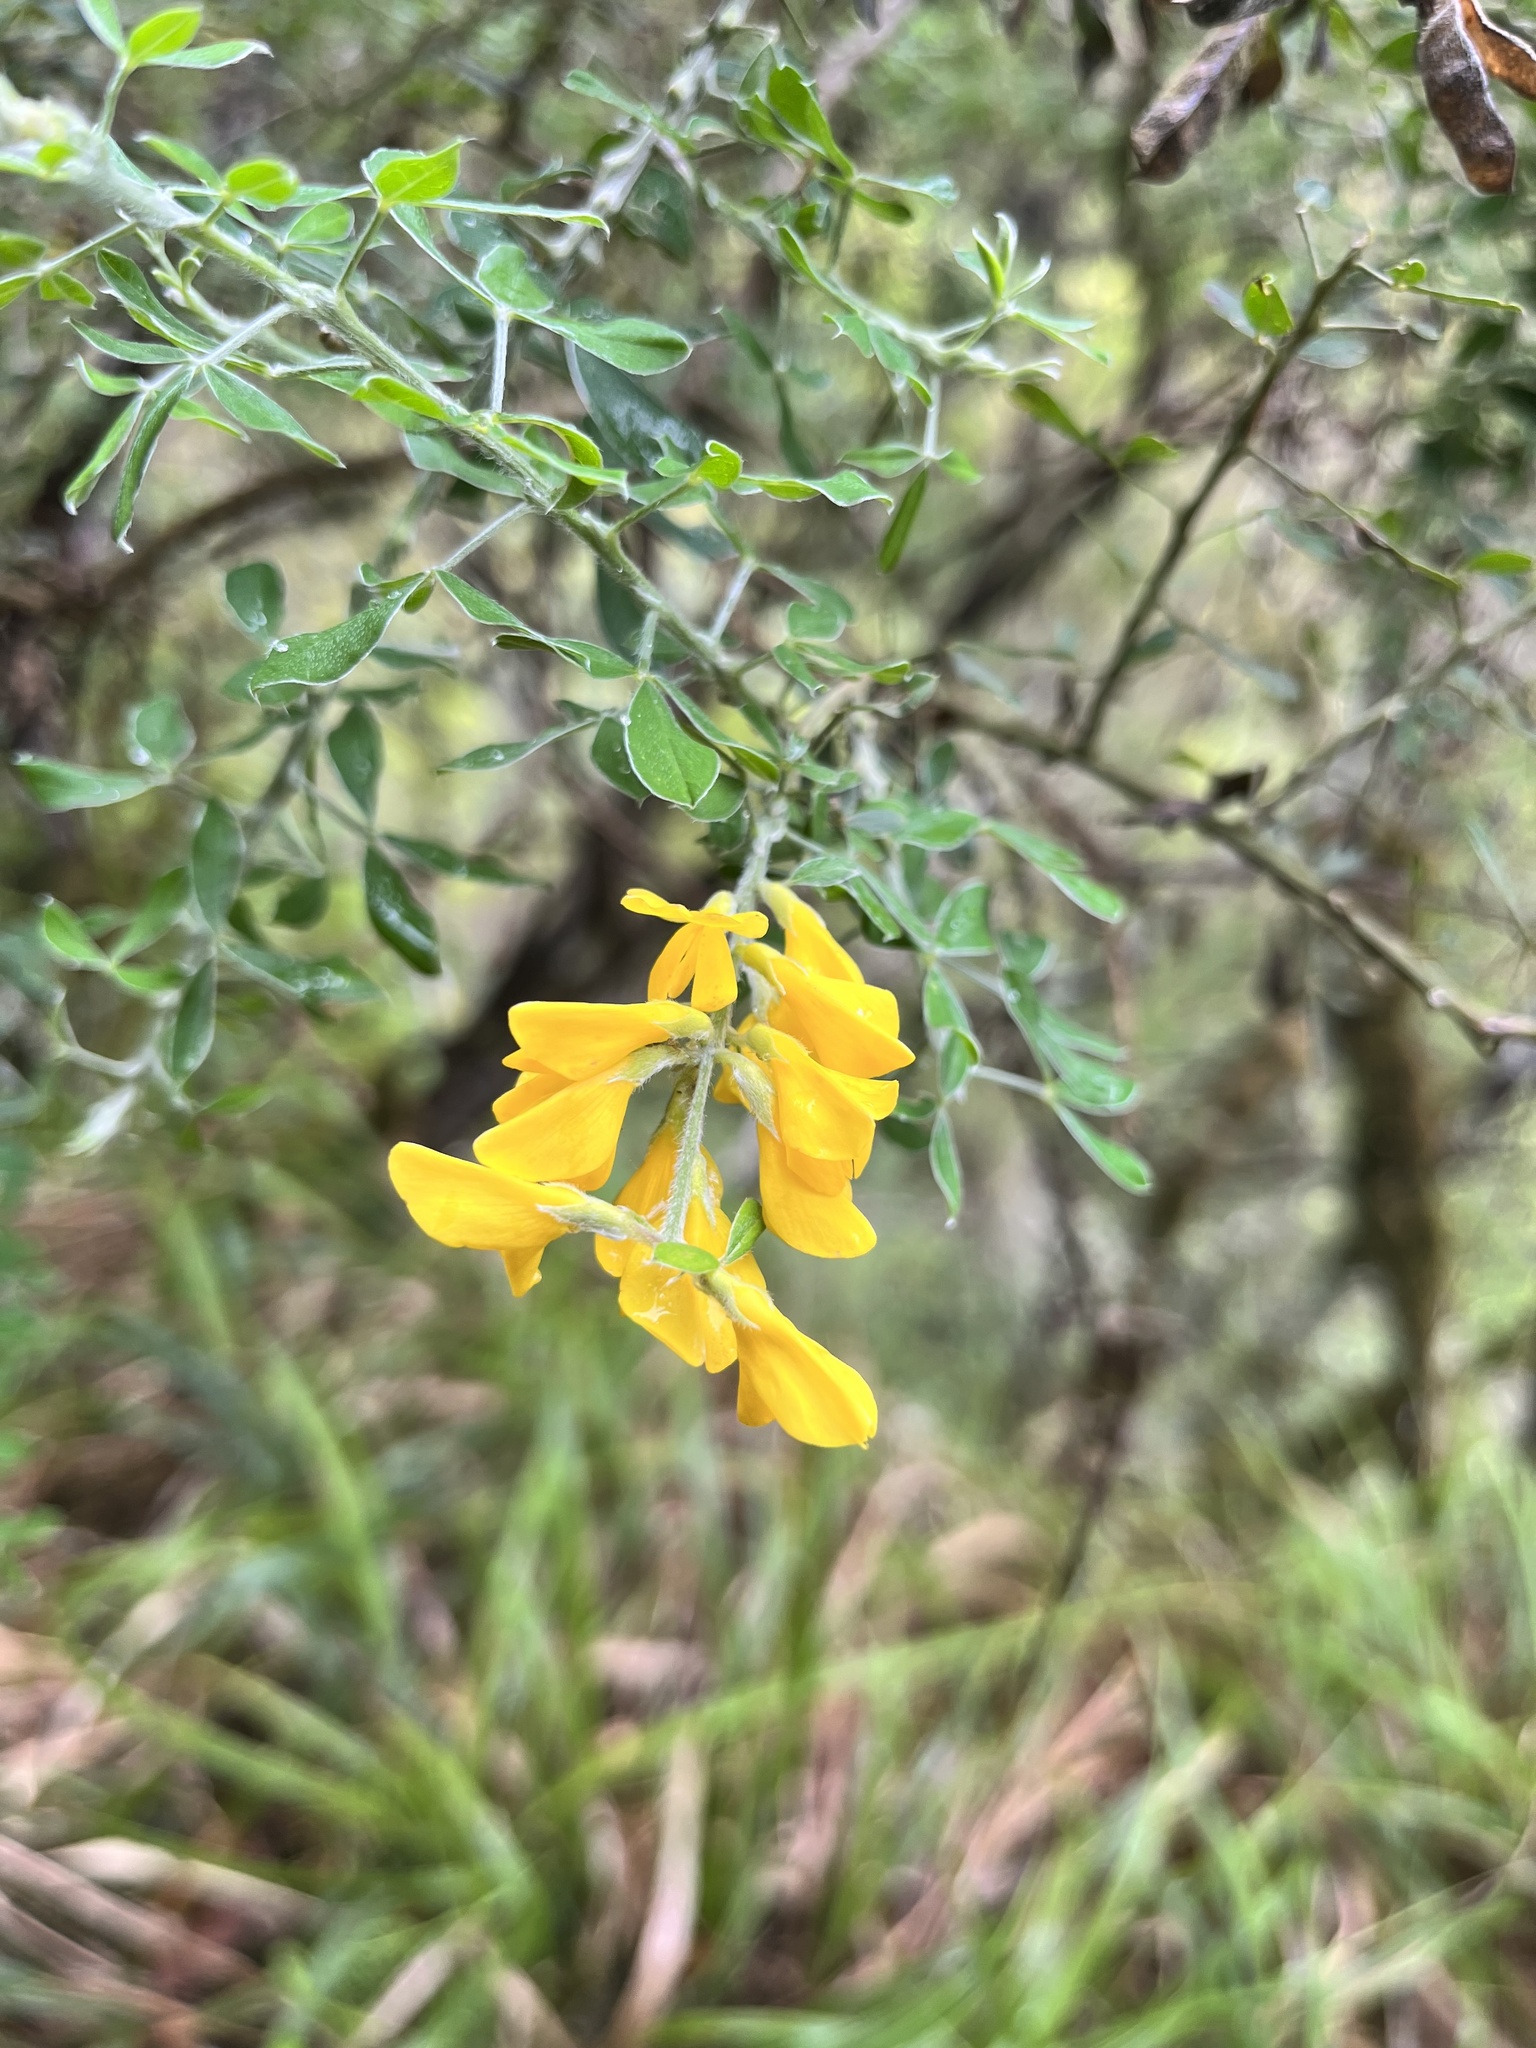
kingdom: Plantae
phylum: Tracheophyta
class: Magnoliopsida
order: Fabales
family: Fabaceae
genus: Genista
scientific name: Genista maderensis
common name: Madeira dyer's greenweed
